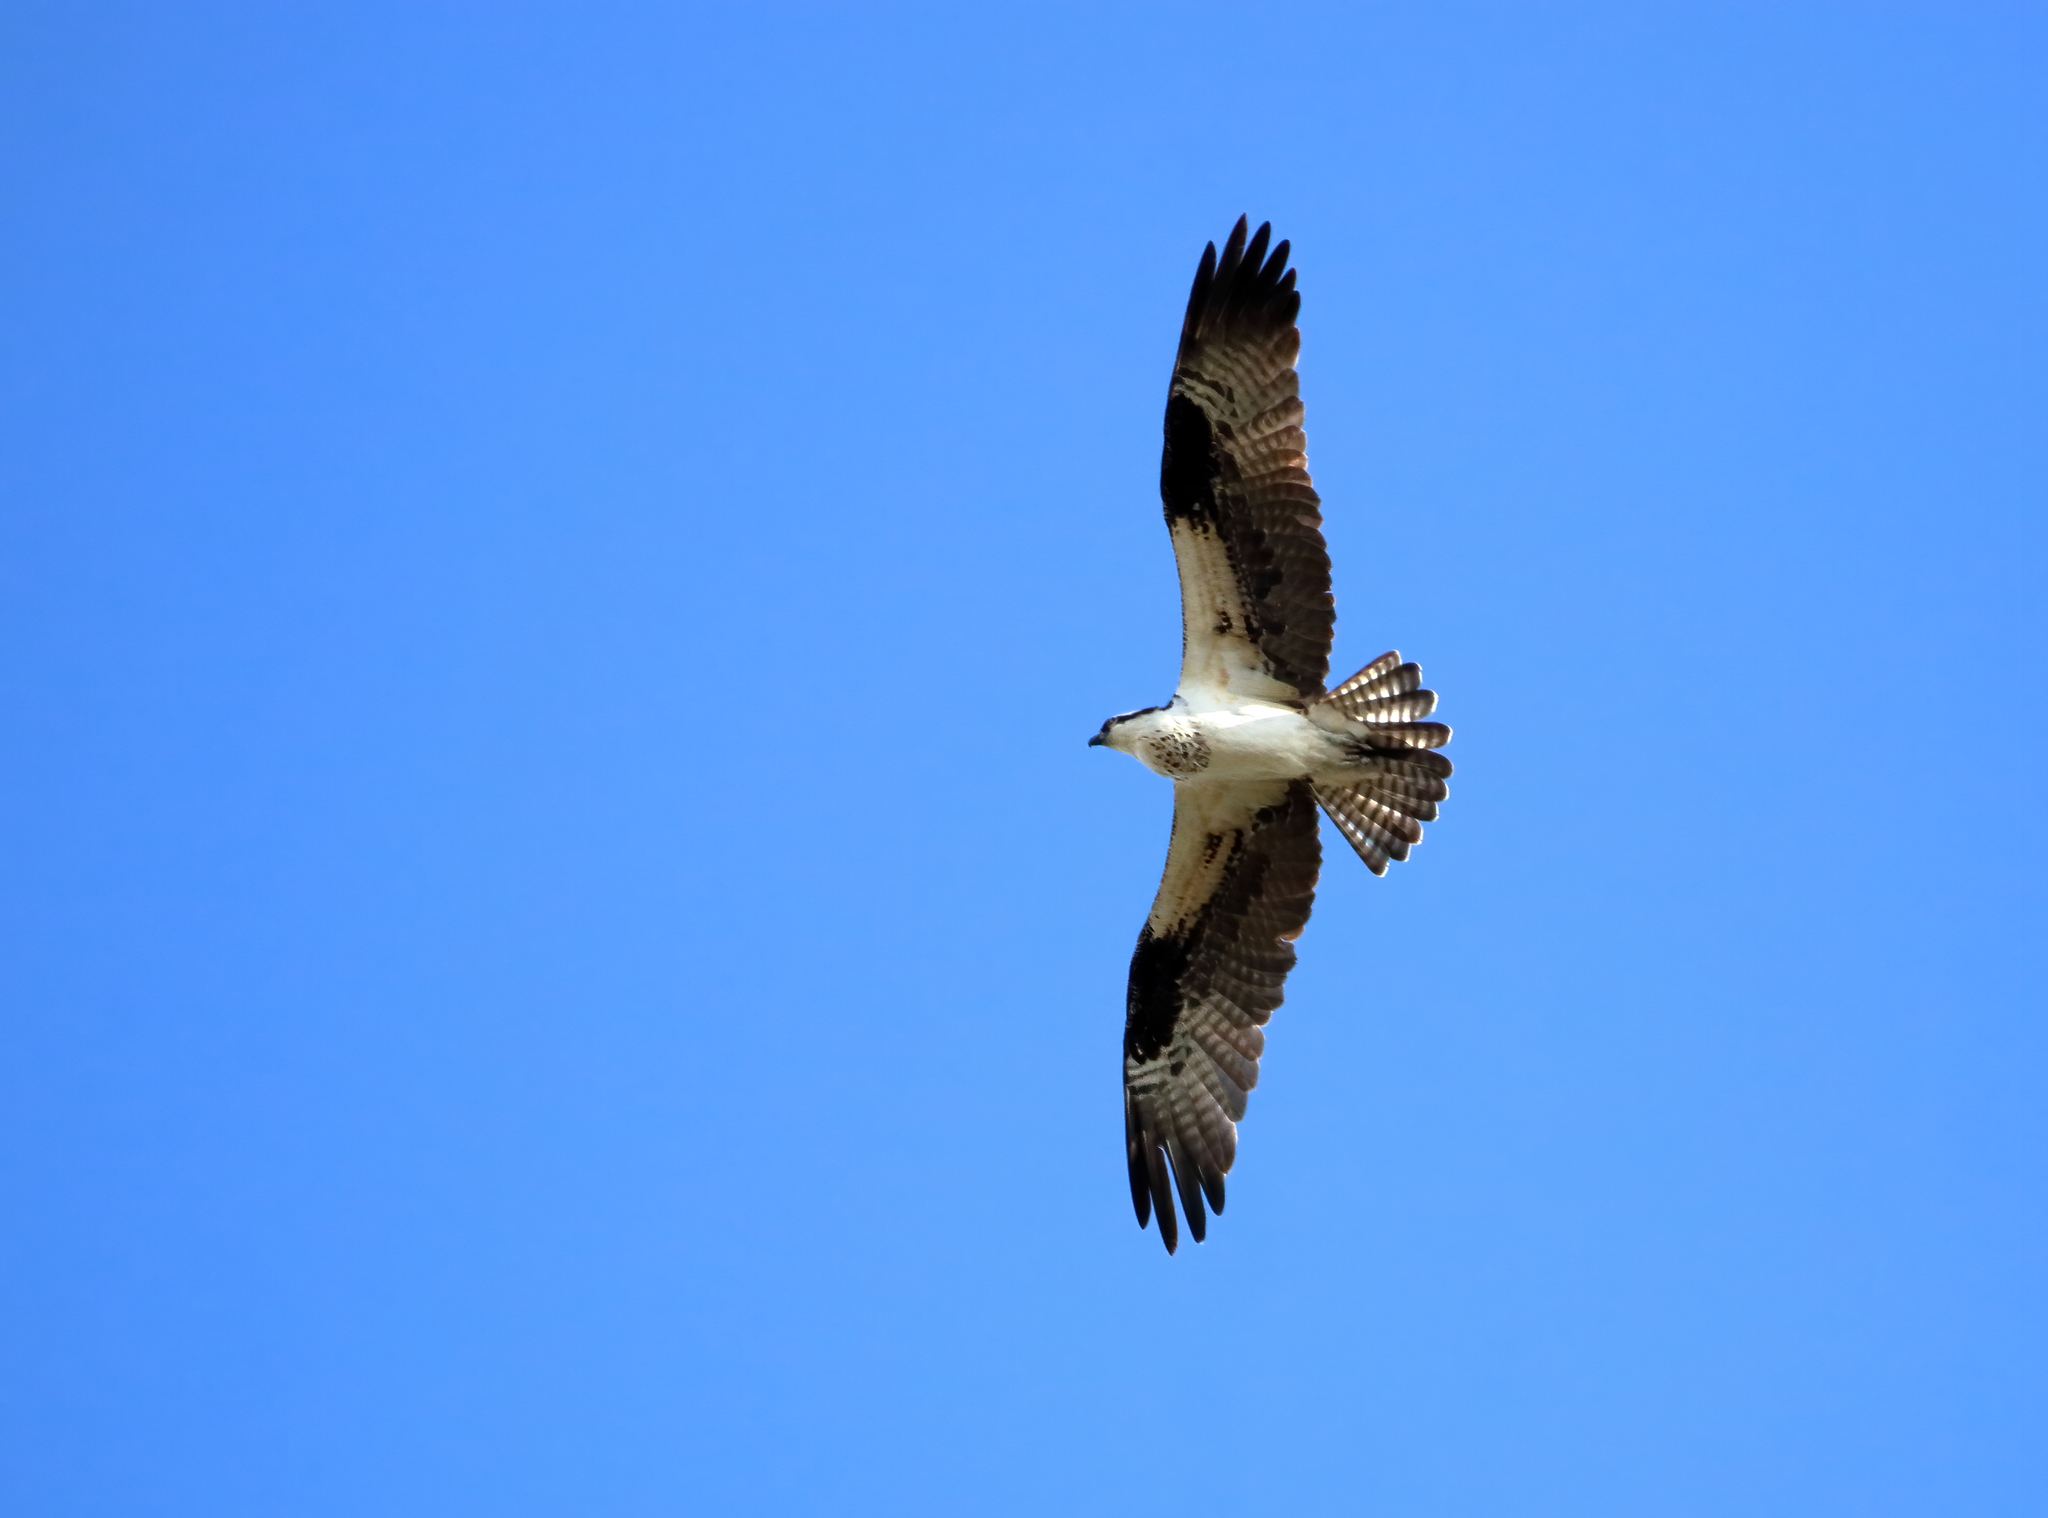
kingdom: Animalia
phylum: Chordata
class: Aves
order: Accipitriformes
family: Pandionidae
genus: Pandion
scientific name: Pandion haliaetus
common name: Osprey
